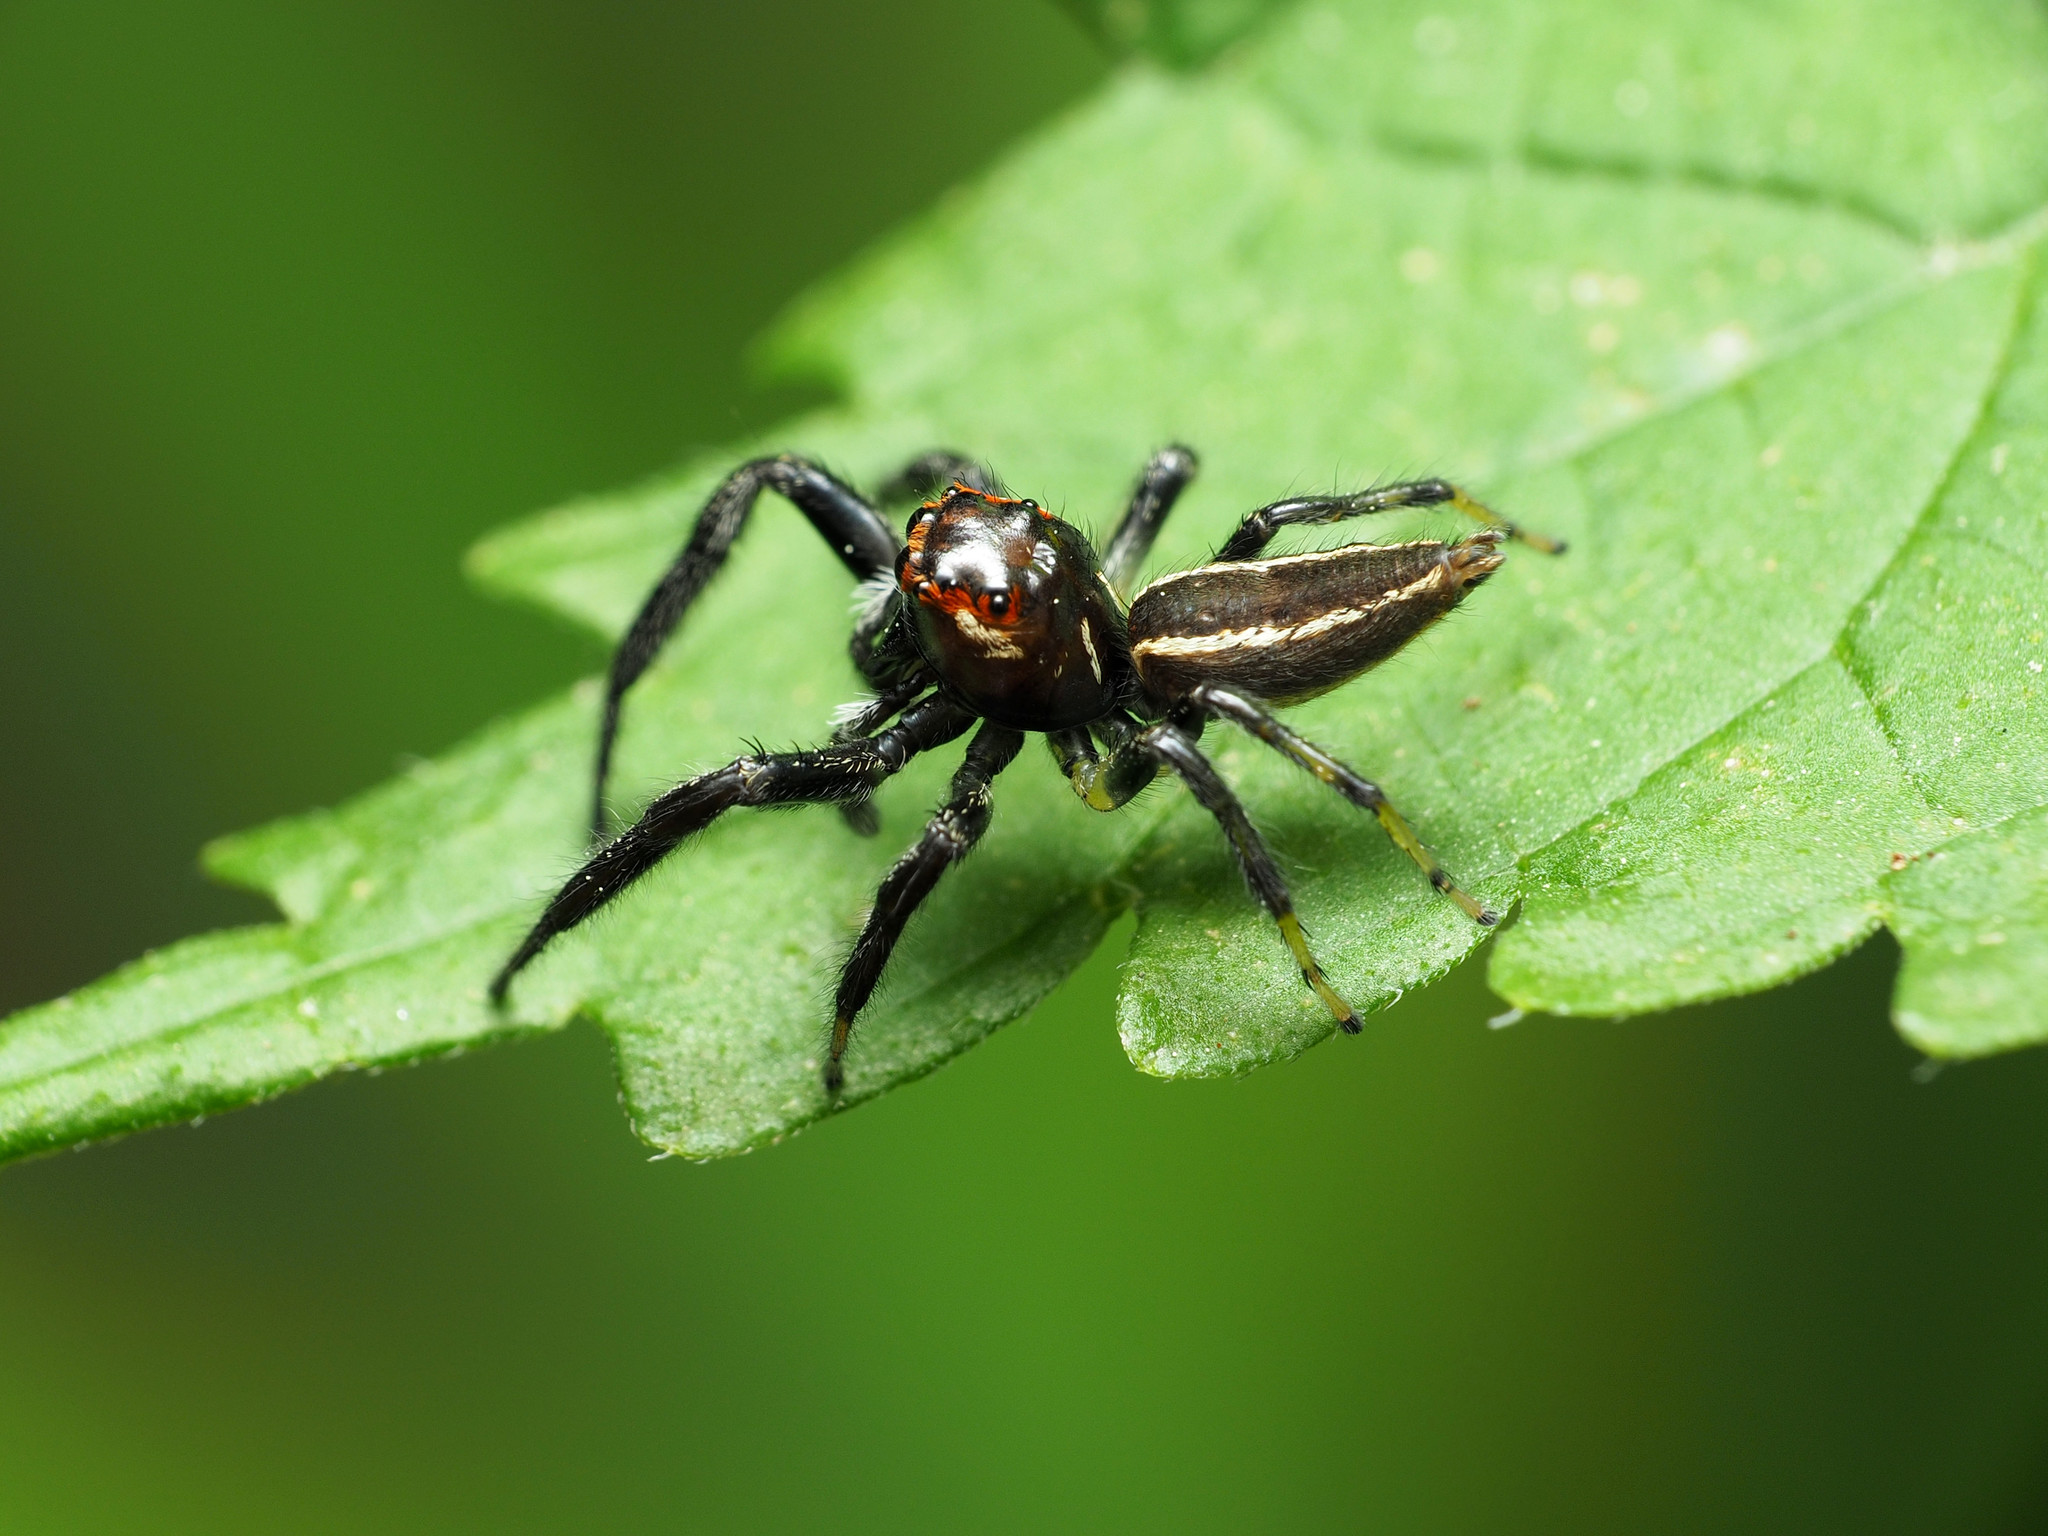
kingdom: Animalia
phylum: Arthropoda
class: Arachnida
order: Araneae
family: Salticidae
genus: Colonus
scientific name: Colonus sylvanus
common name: Jumping spiders
